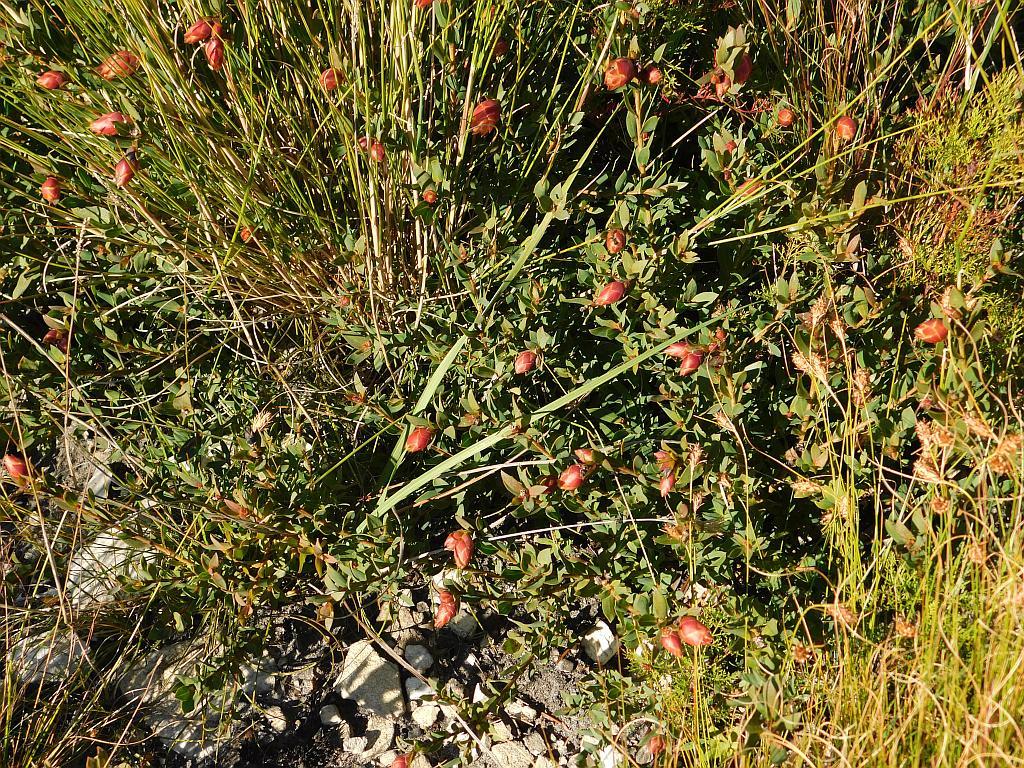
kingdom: Plantae
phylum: Tracheophyta
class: Magnoliopsida
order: Fabales
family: Fabaceae
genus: Liparia
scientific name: Liparia splendens
